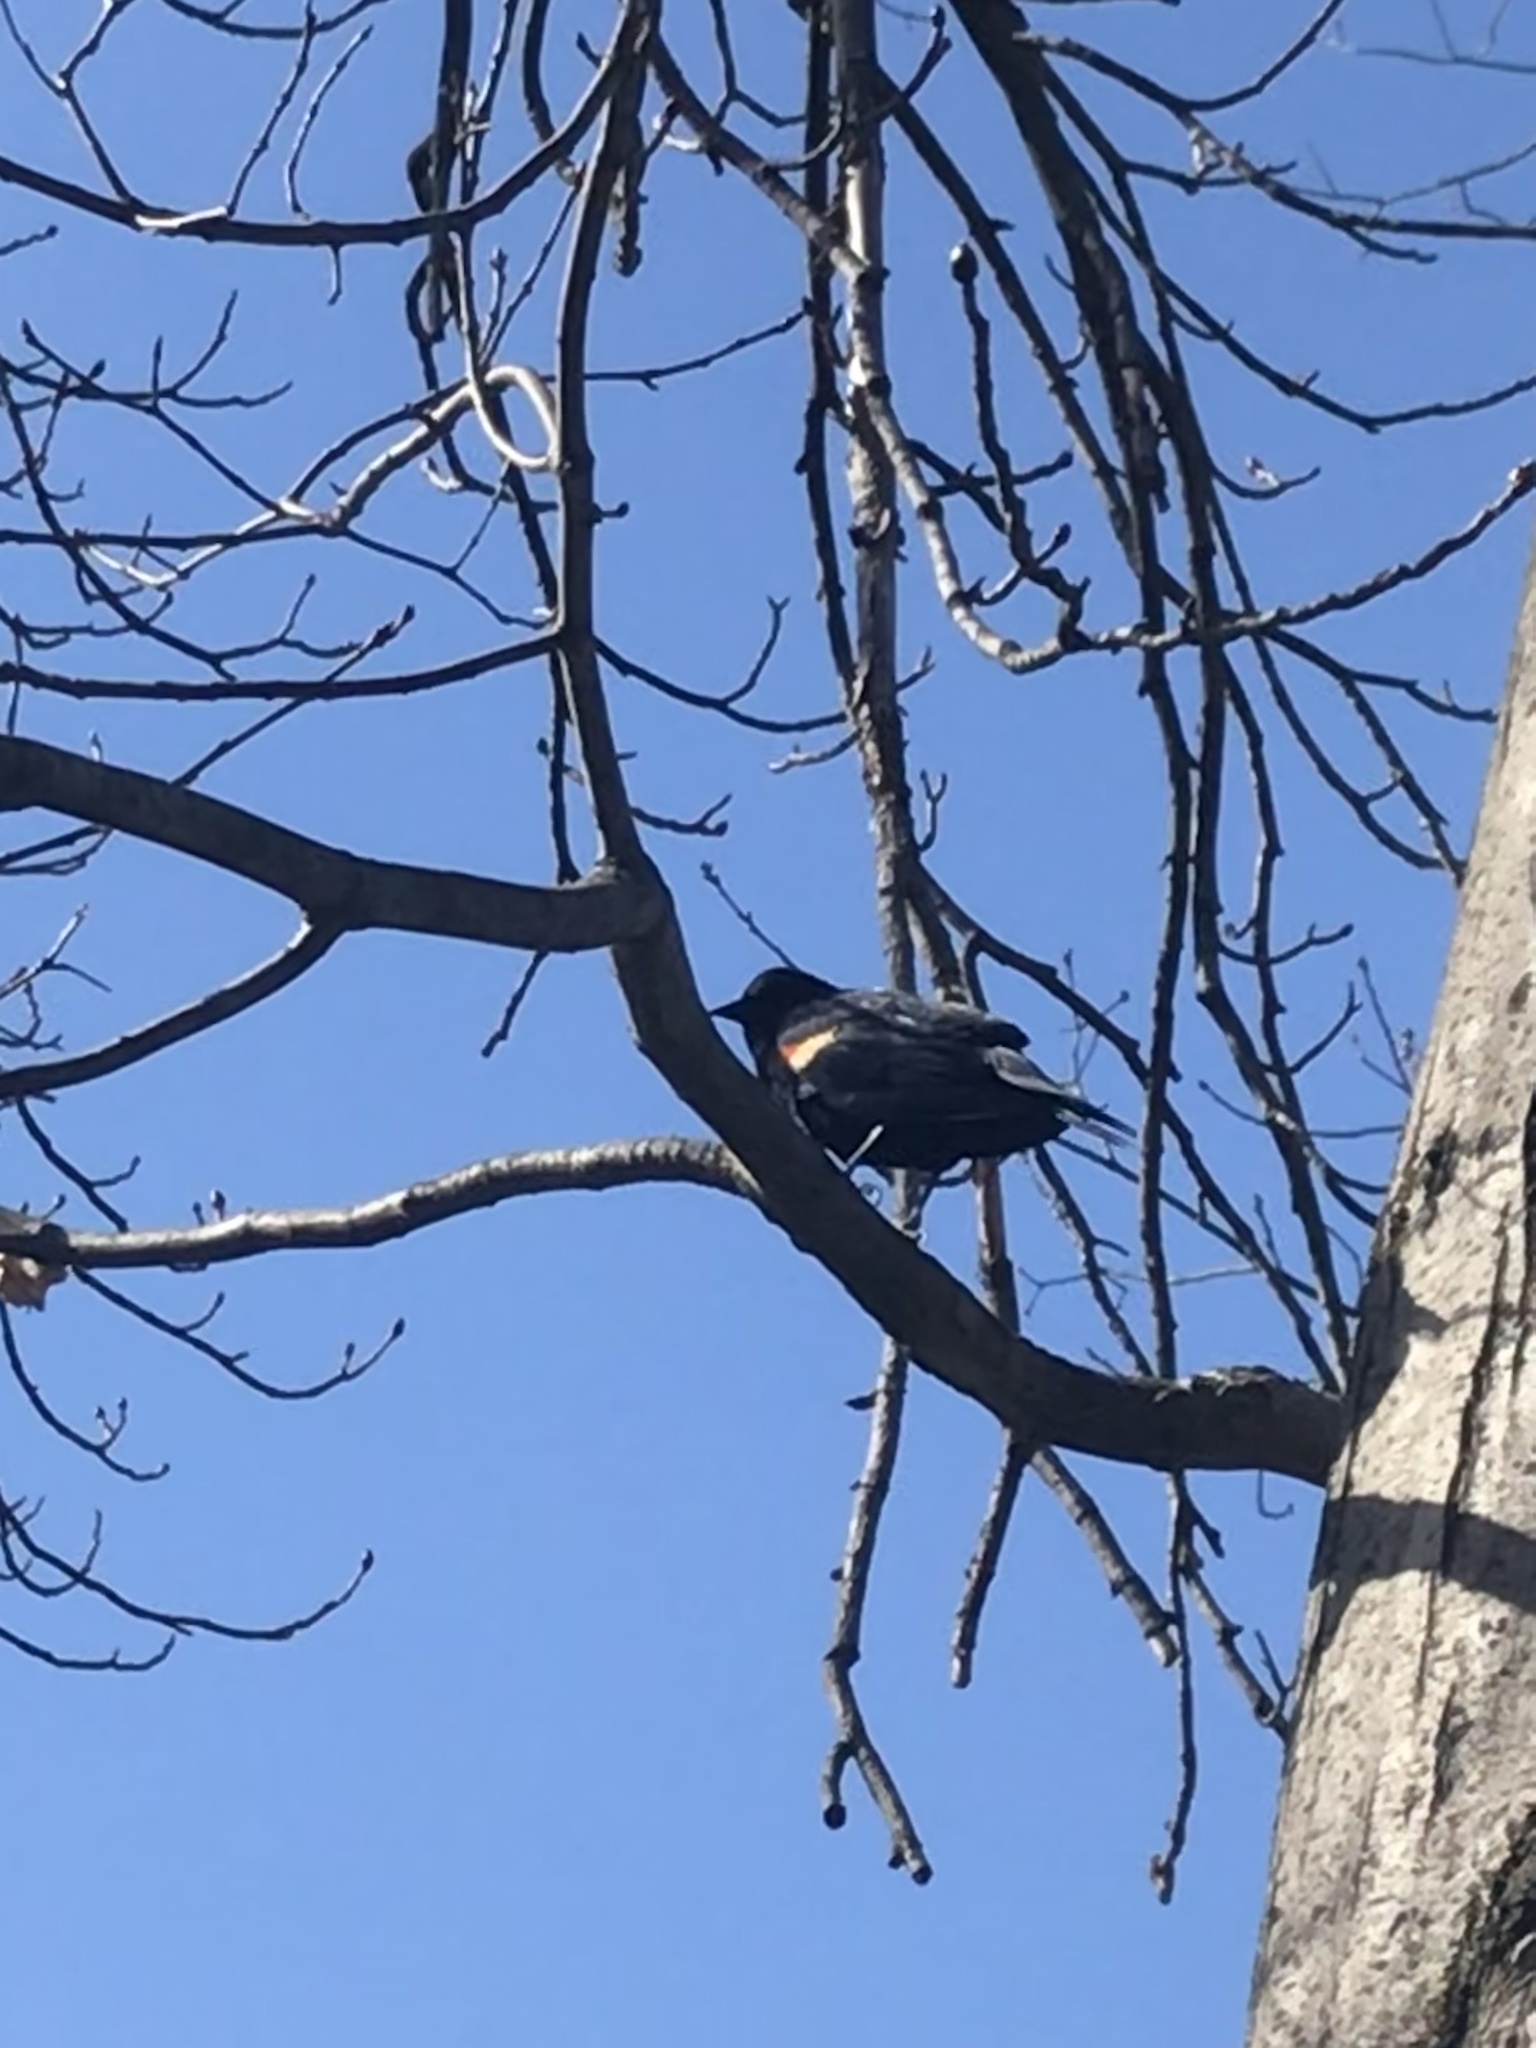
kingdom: Animalia
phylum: Chordata
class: Aves
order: Passeriformes
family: Icteridae
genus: Agelaius
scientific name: Agelaius phoeniceus
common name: Red-winged blackbird
